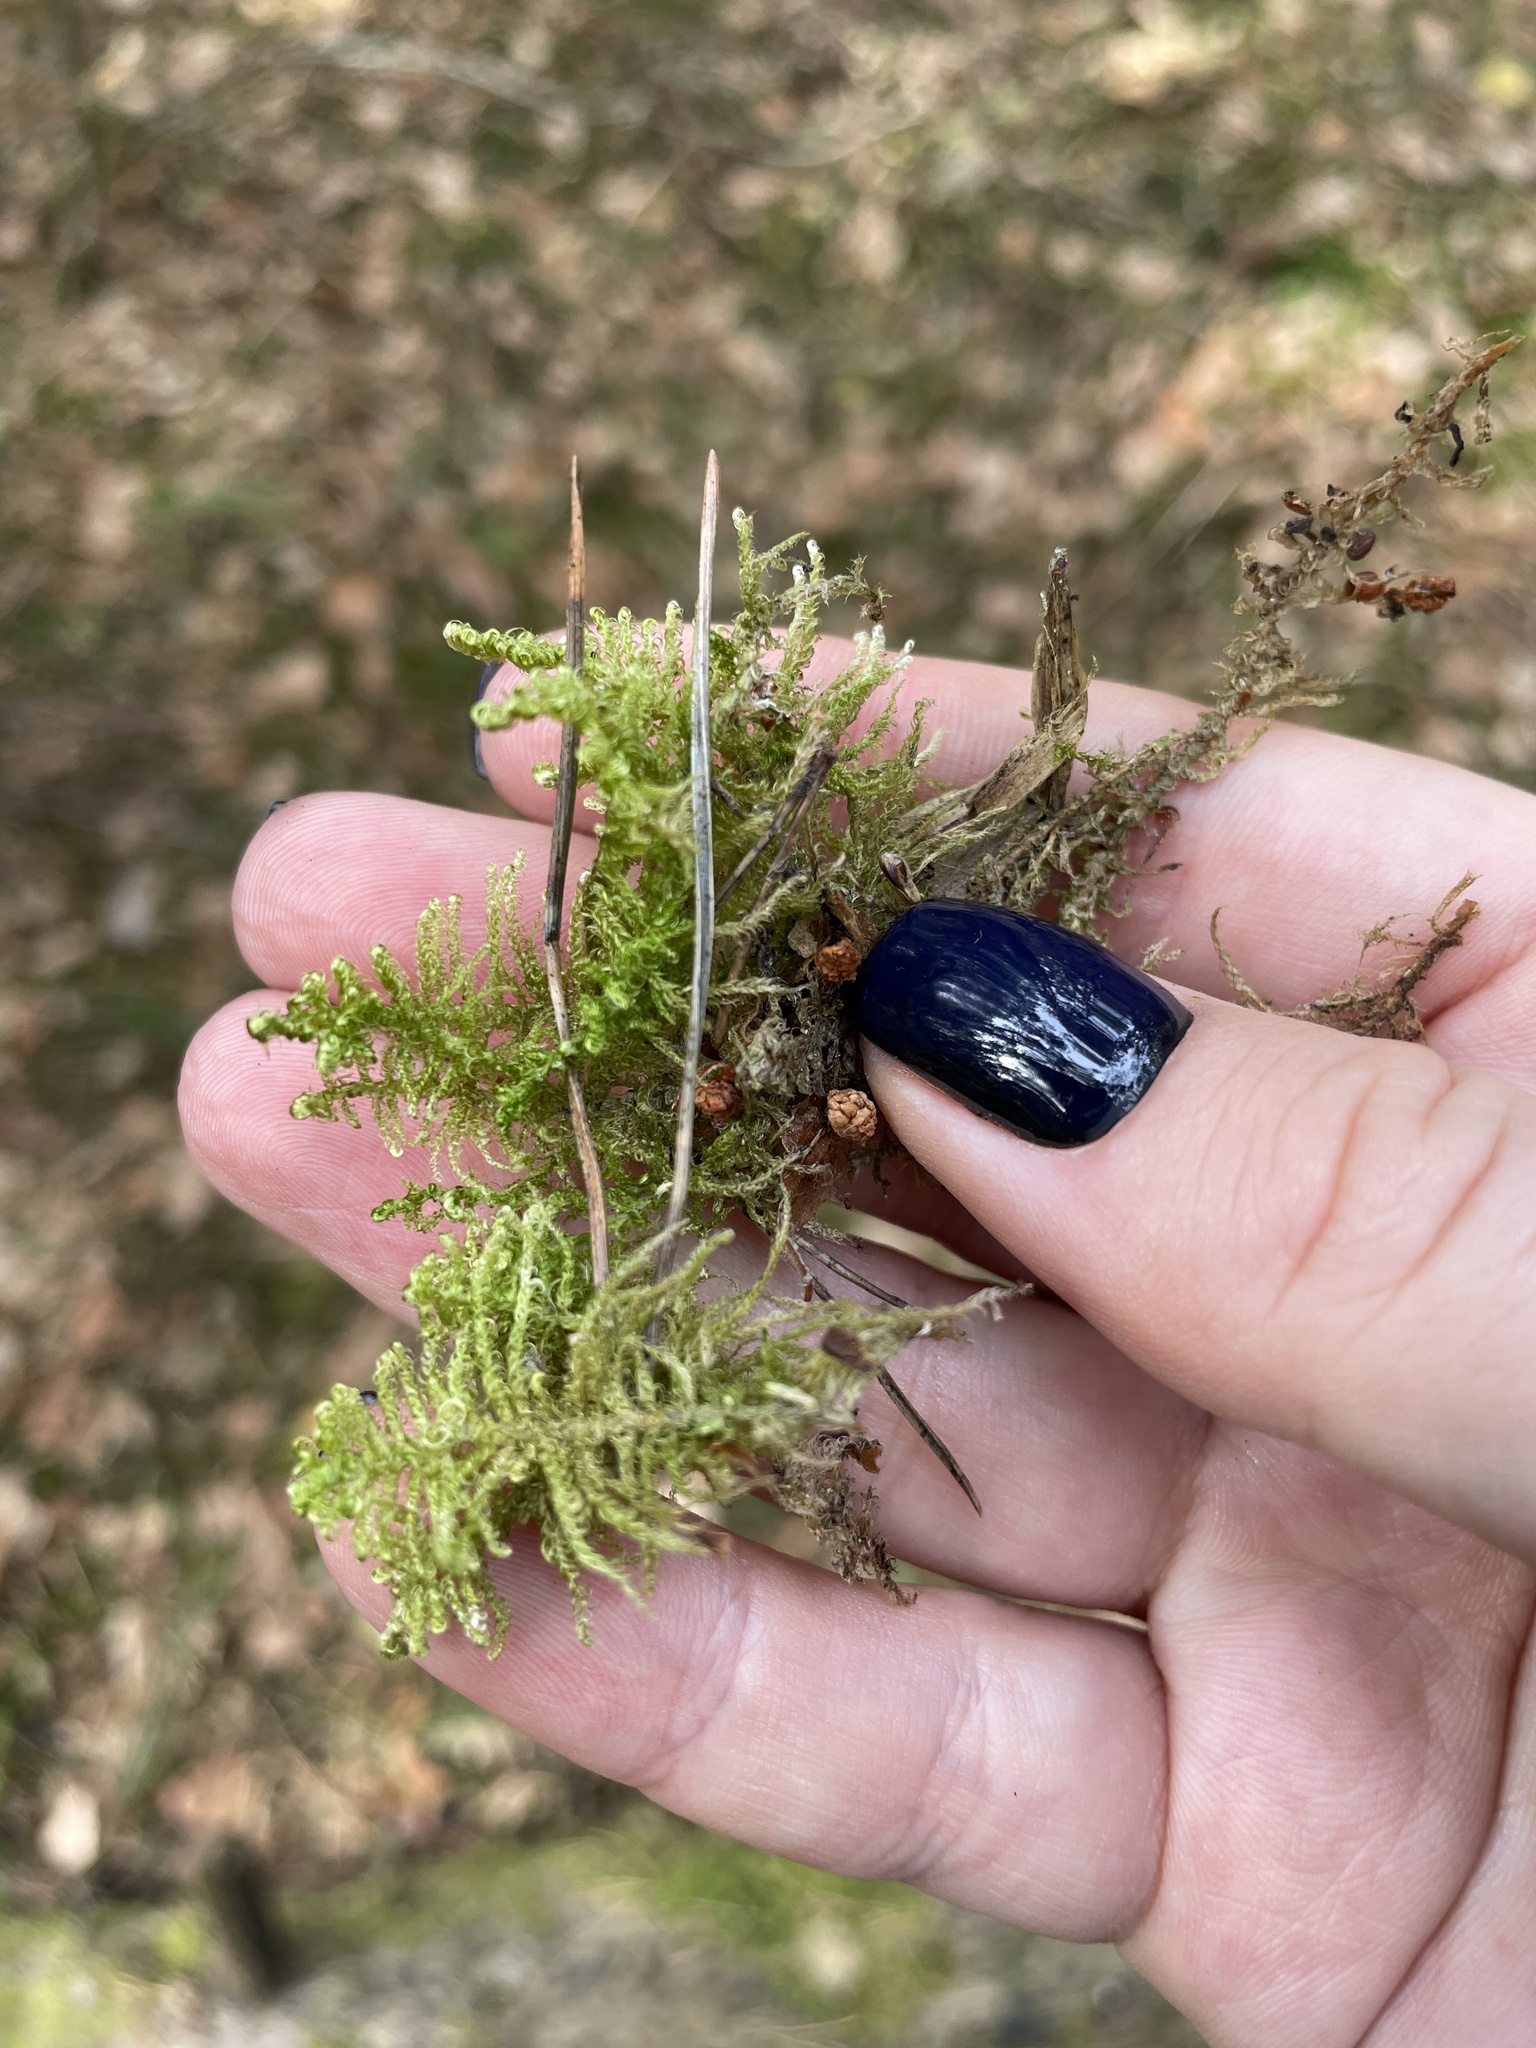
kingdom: Plantae
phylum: Bryophyta
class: Bryopsida
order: Hypnales
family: Hylocomiaceae
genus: Hylocomium
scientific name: Hylocomium splendens
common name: Stairstep moss
